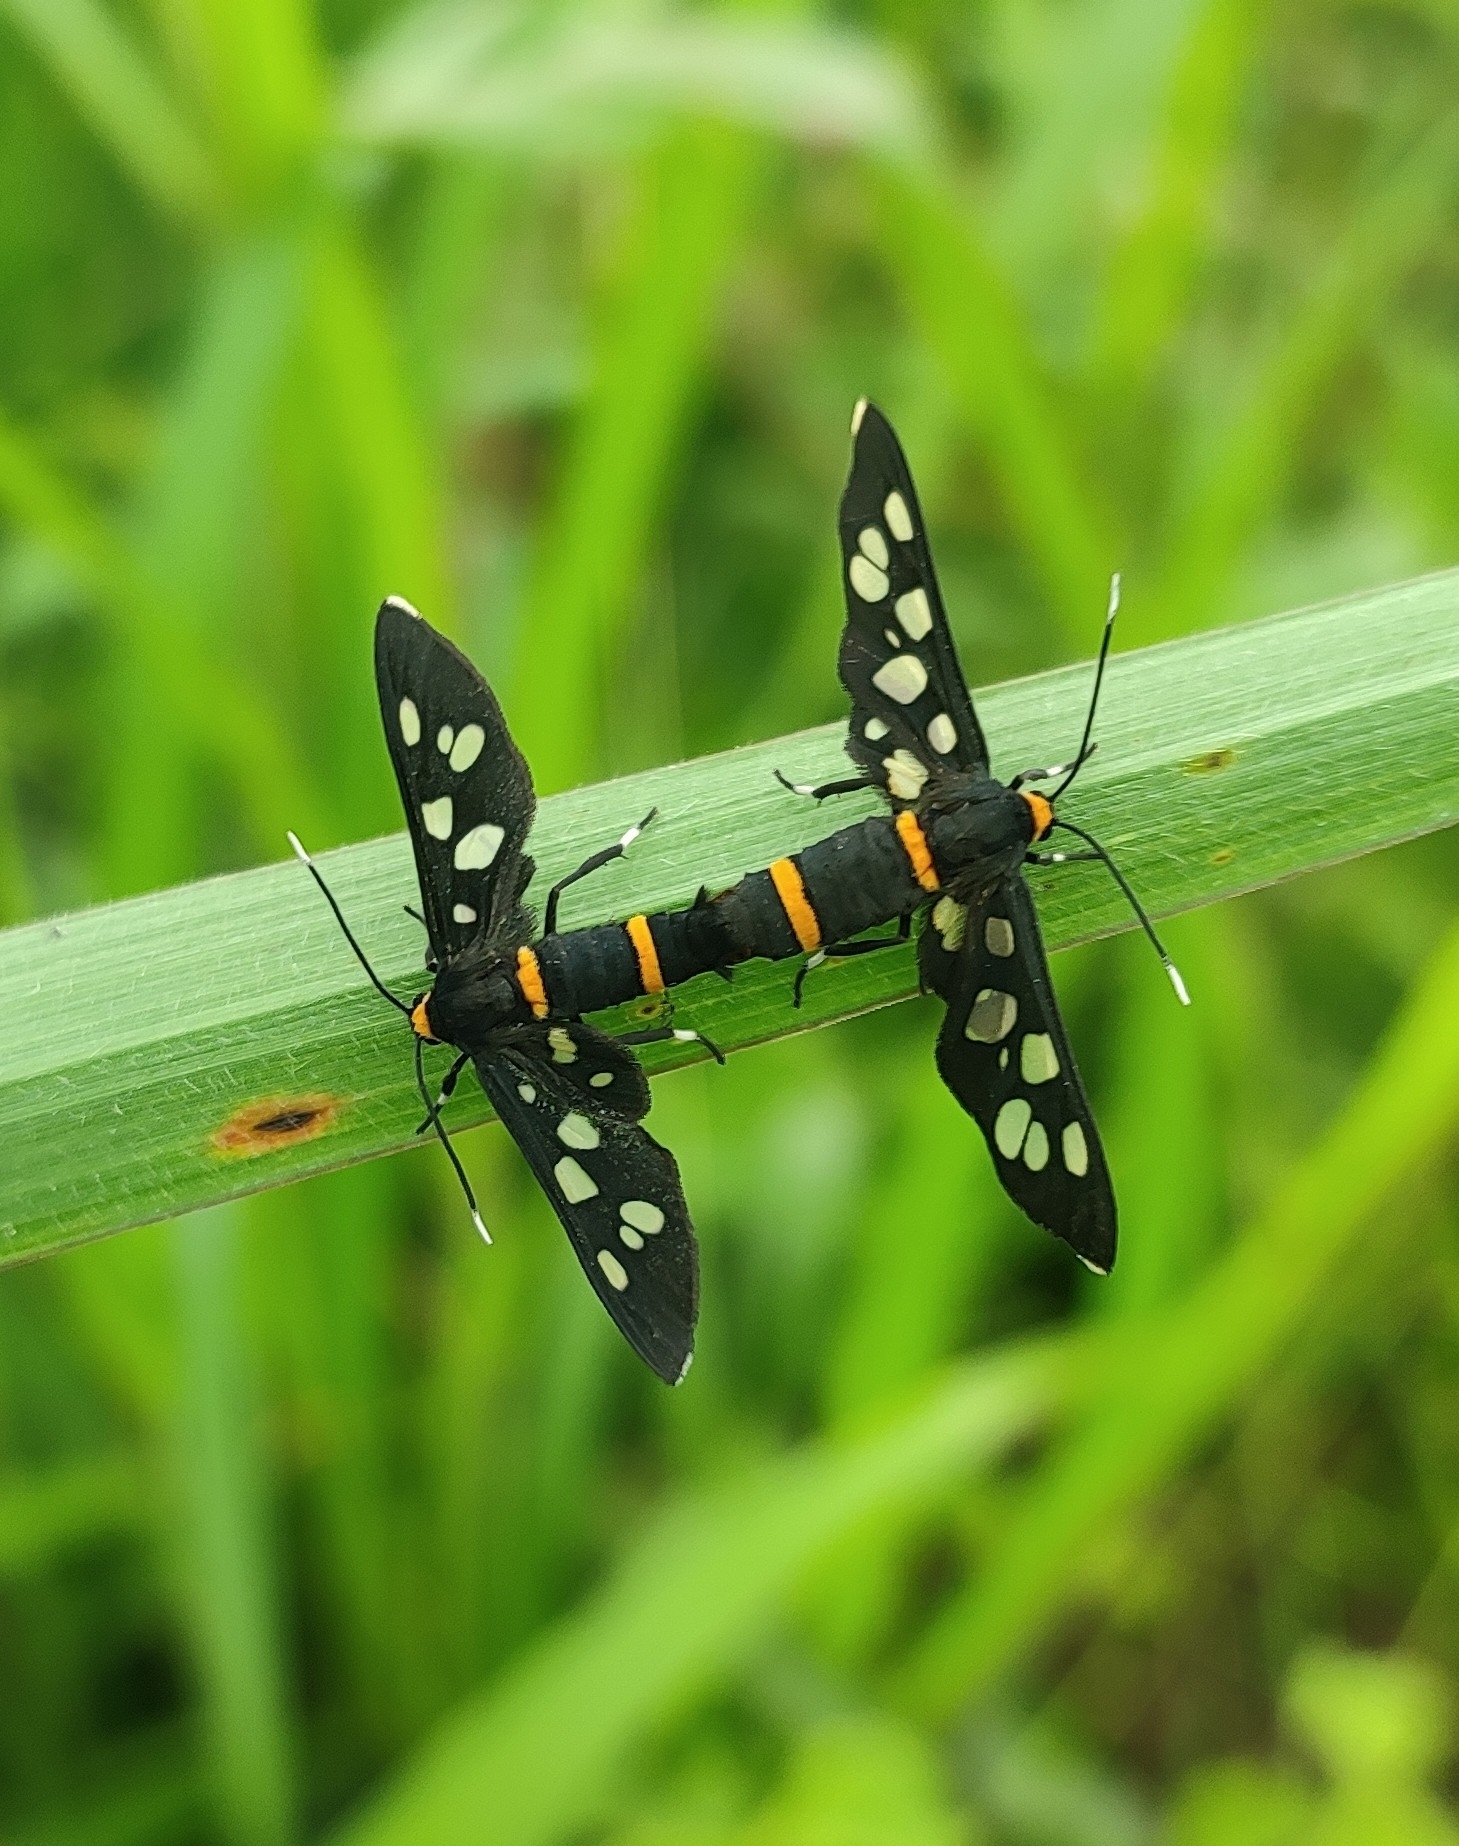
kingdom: Animalia
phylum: Arthropoda
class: Insecta
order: Lepidoptera
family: Erebidae
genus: Amata
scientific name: Amata cyssea
